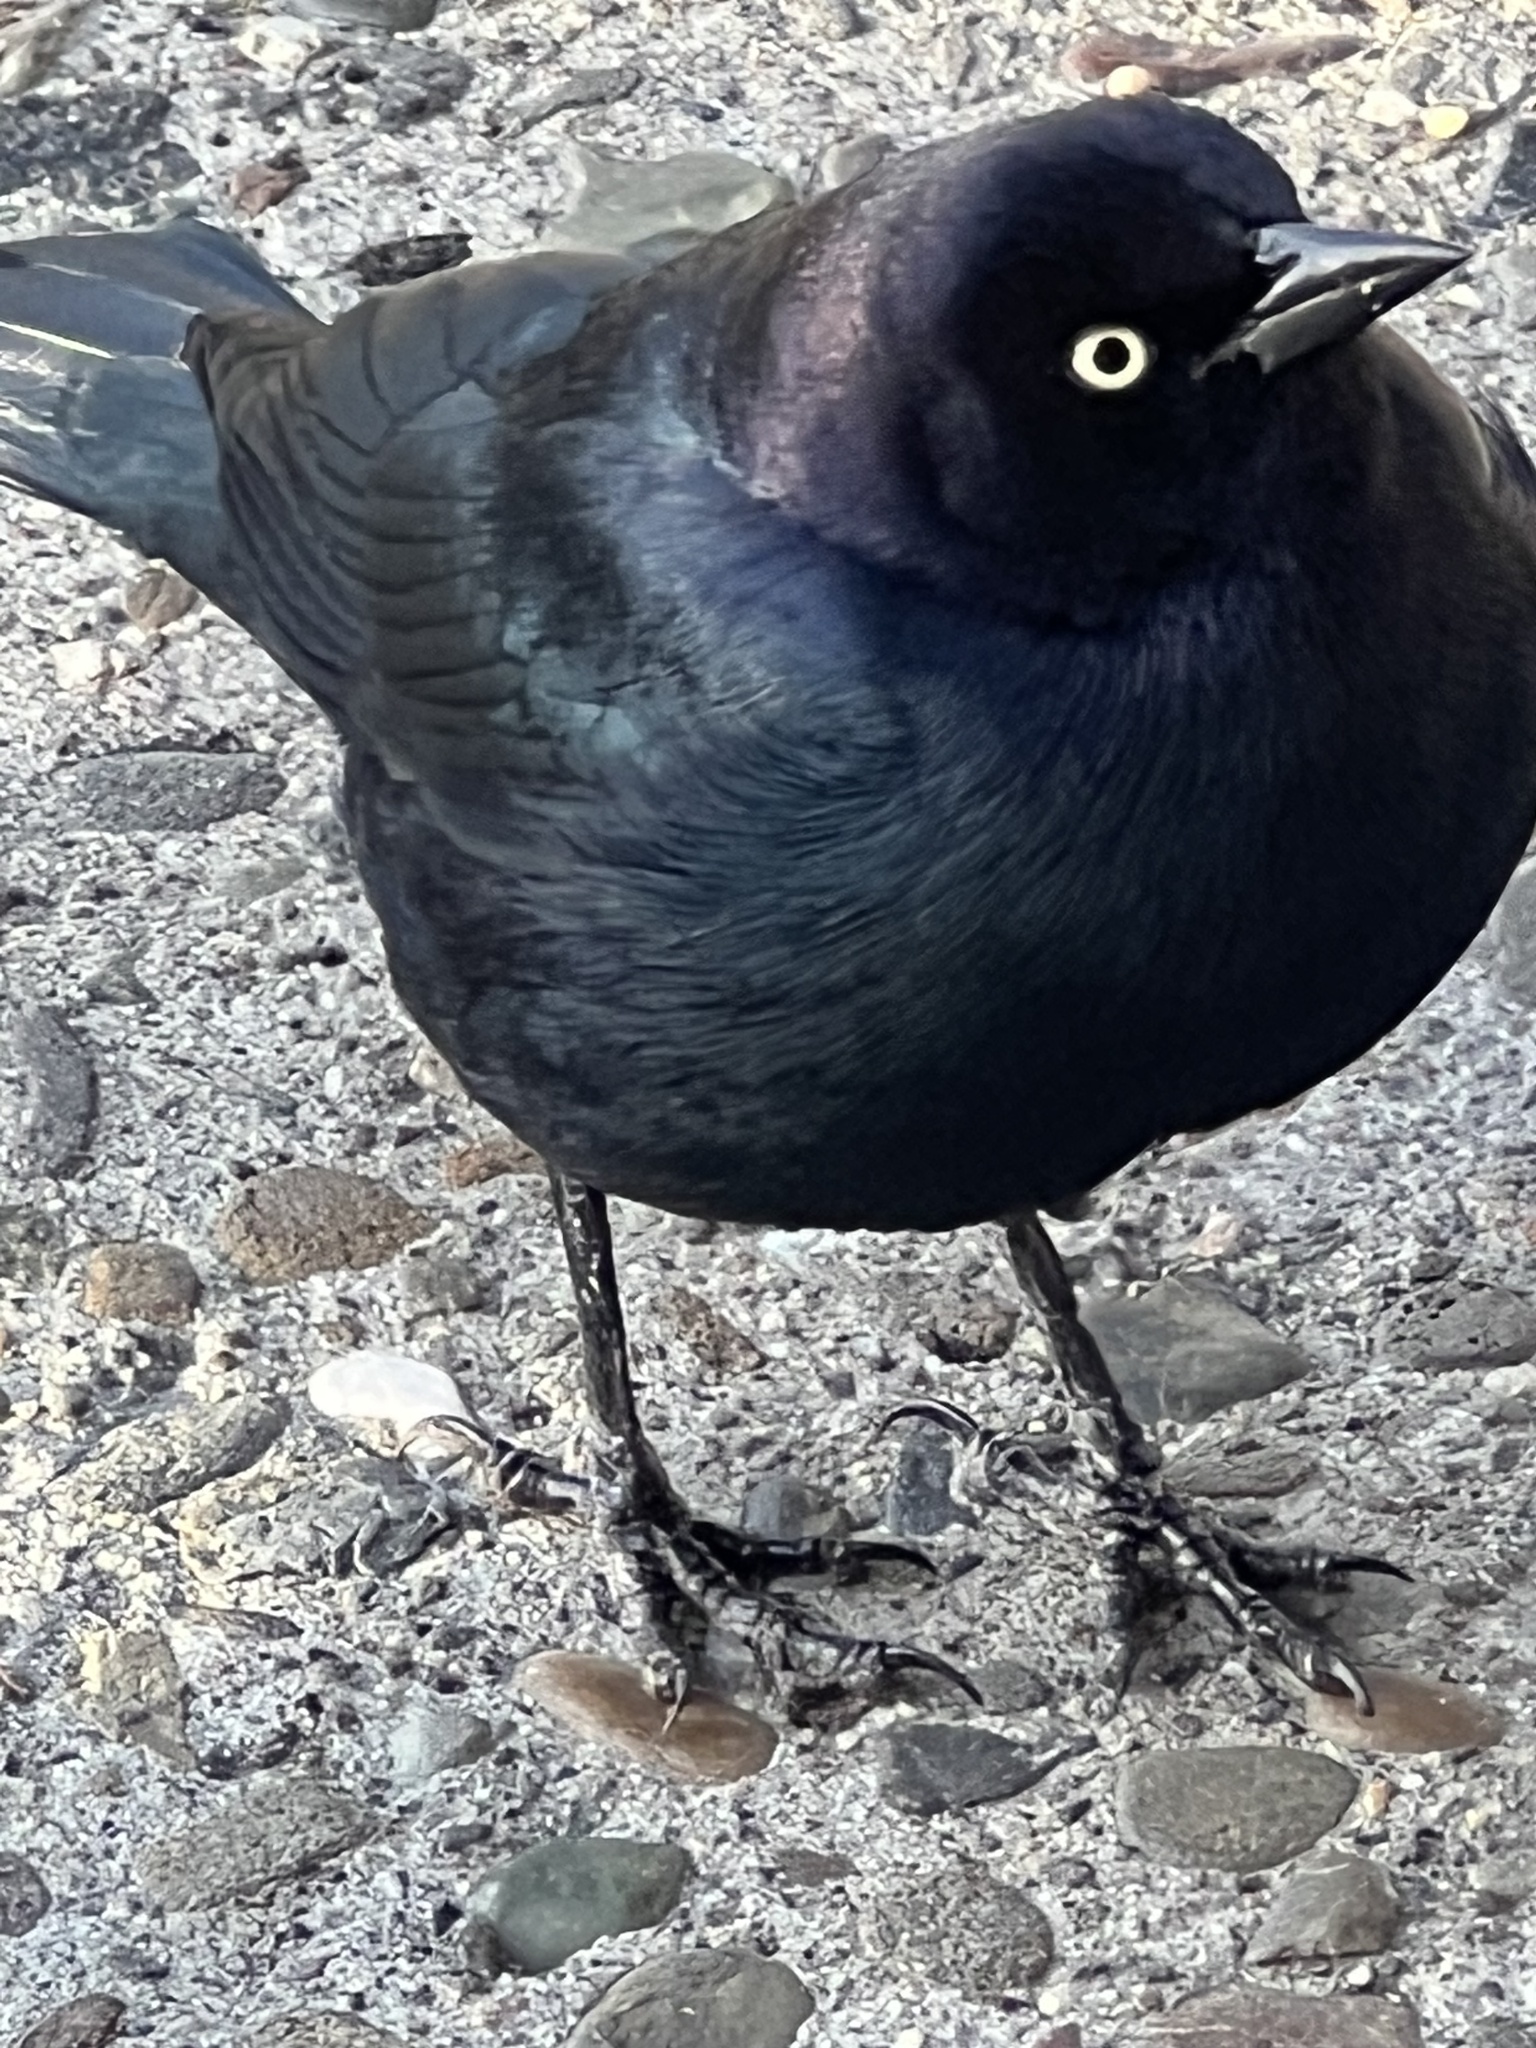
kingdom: Animalia
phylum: Chordata
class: Aves
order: Passeriformes
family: Icteridae
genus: Euphagus
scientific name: Euphagus cyanocephalus
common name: Brewer's blackbird
